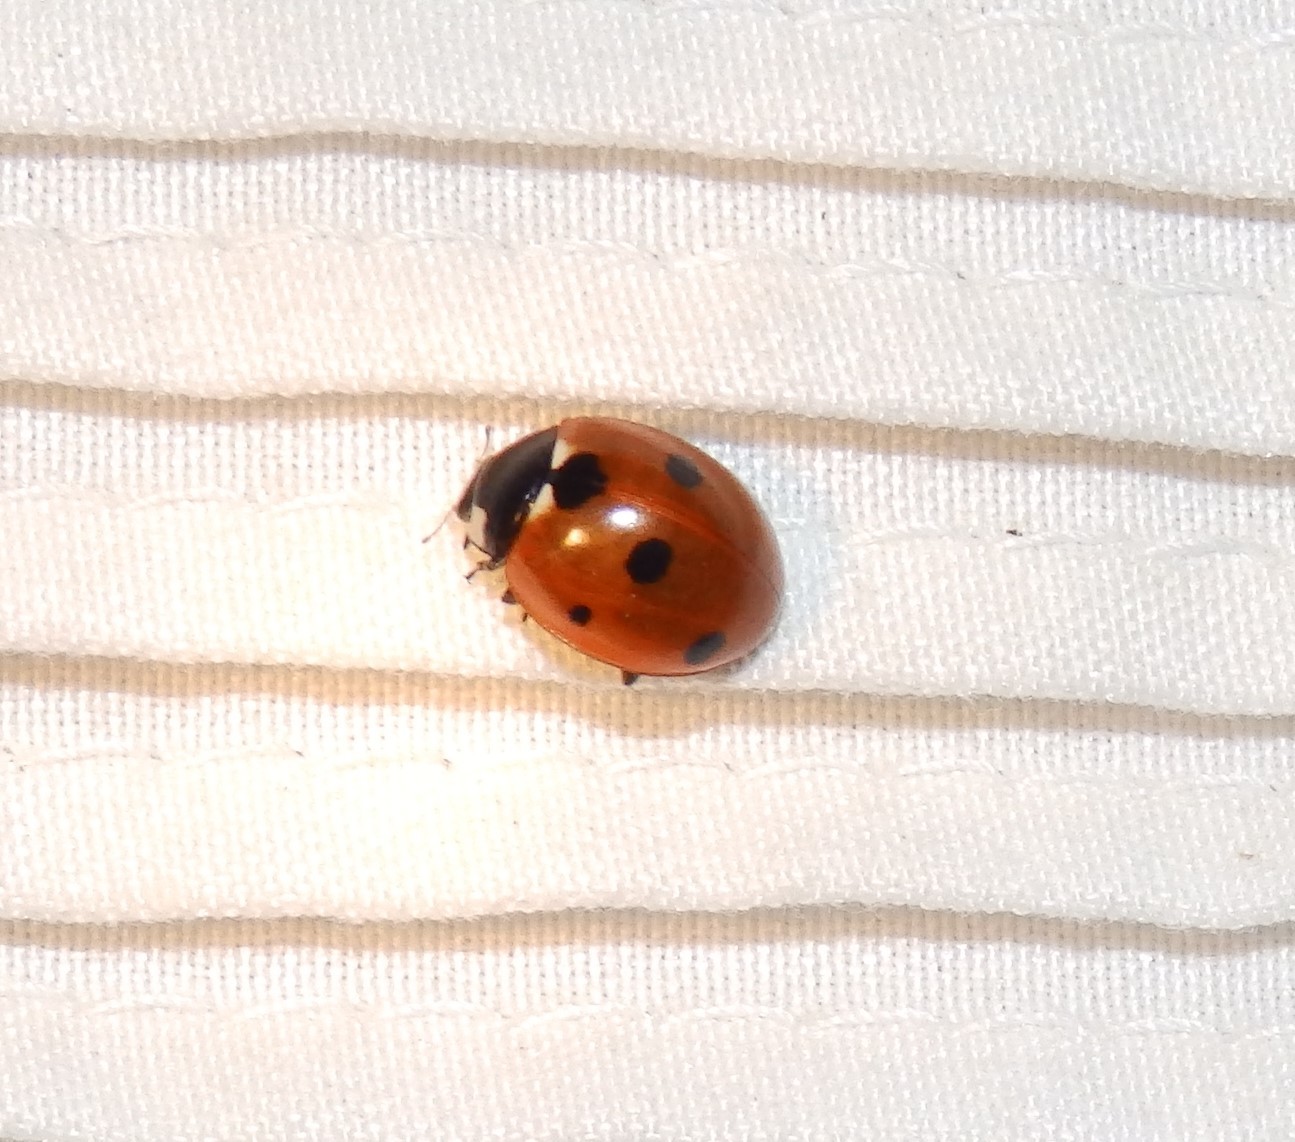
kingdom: Animalia
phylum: Arthropoda
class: Insecta
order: Coleoptera
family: Coccinellidae
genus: Coccinella
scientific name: Coccinella septempunctata
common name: Sevenspotted lady beetle
